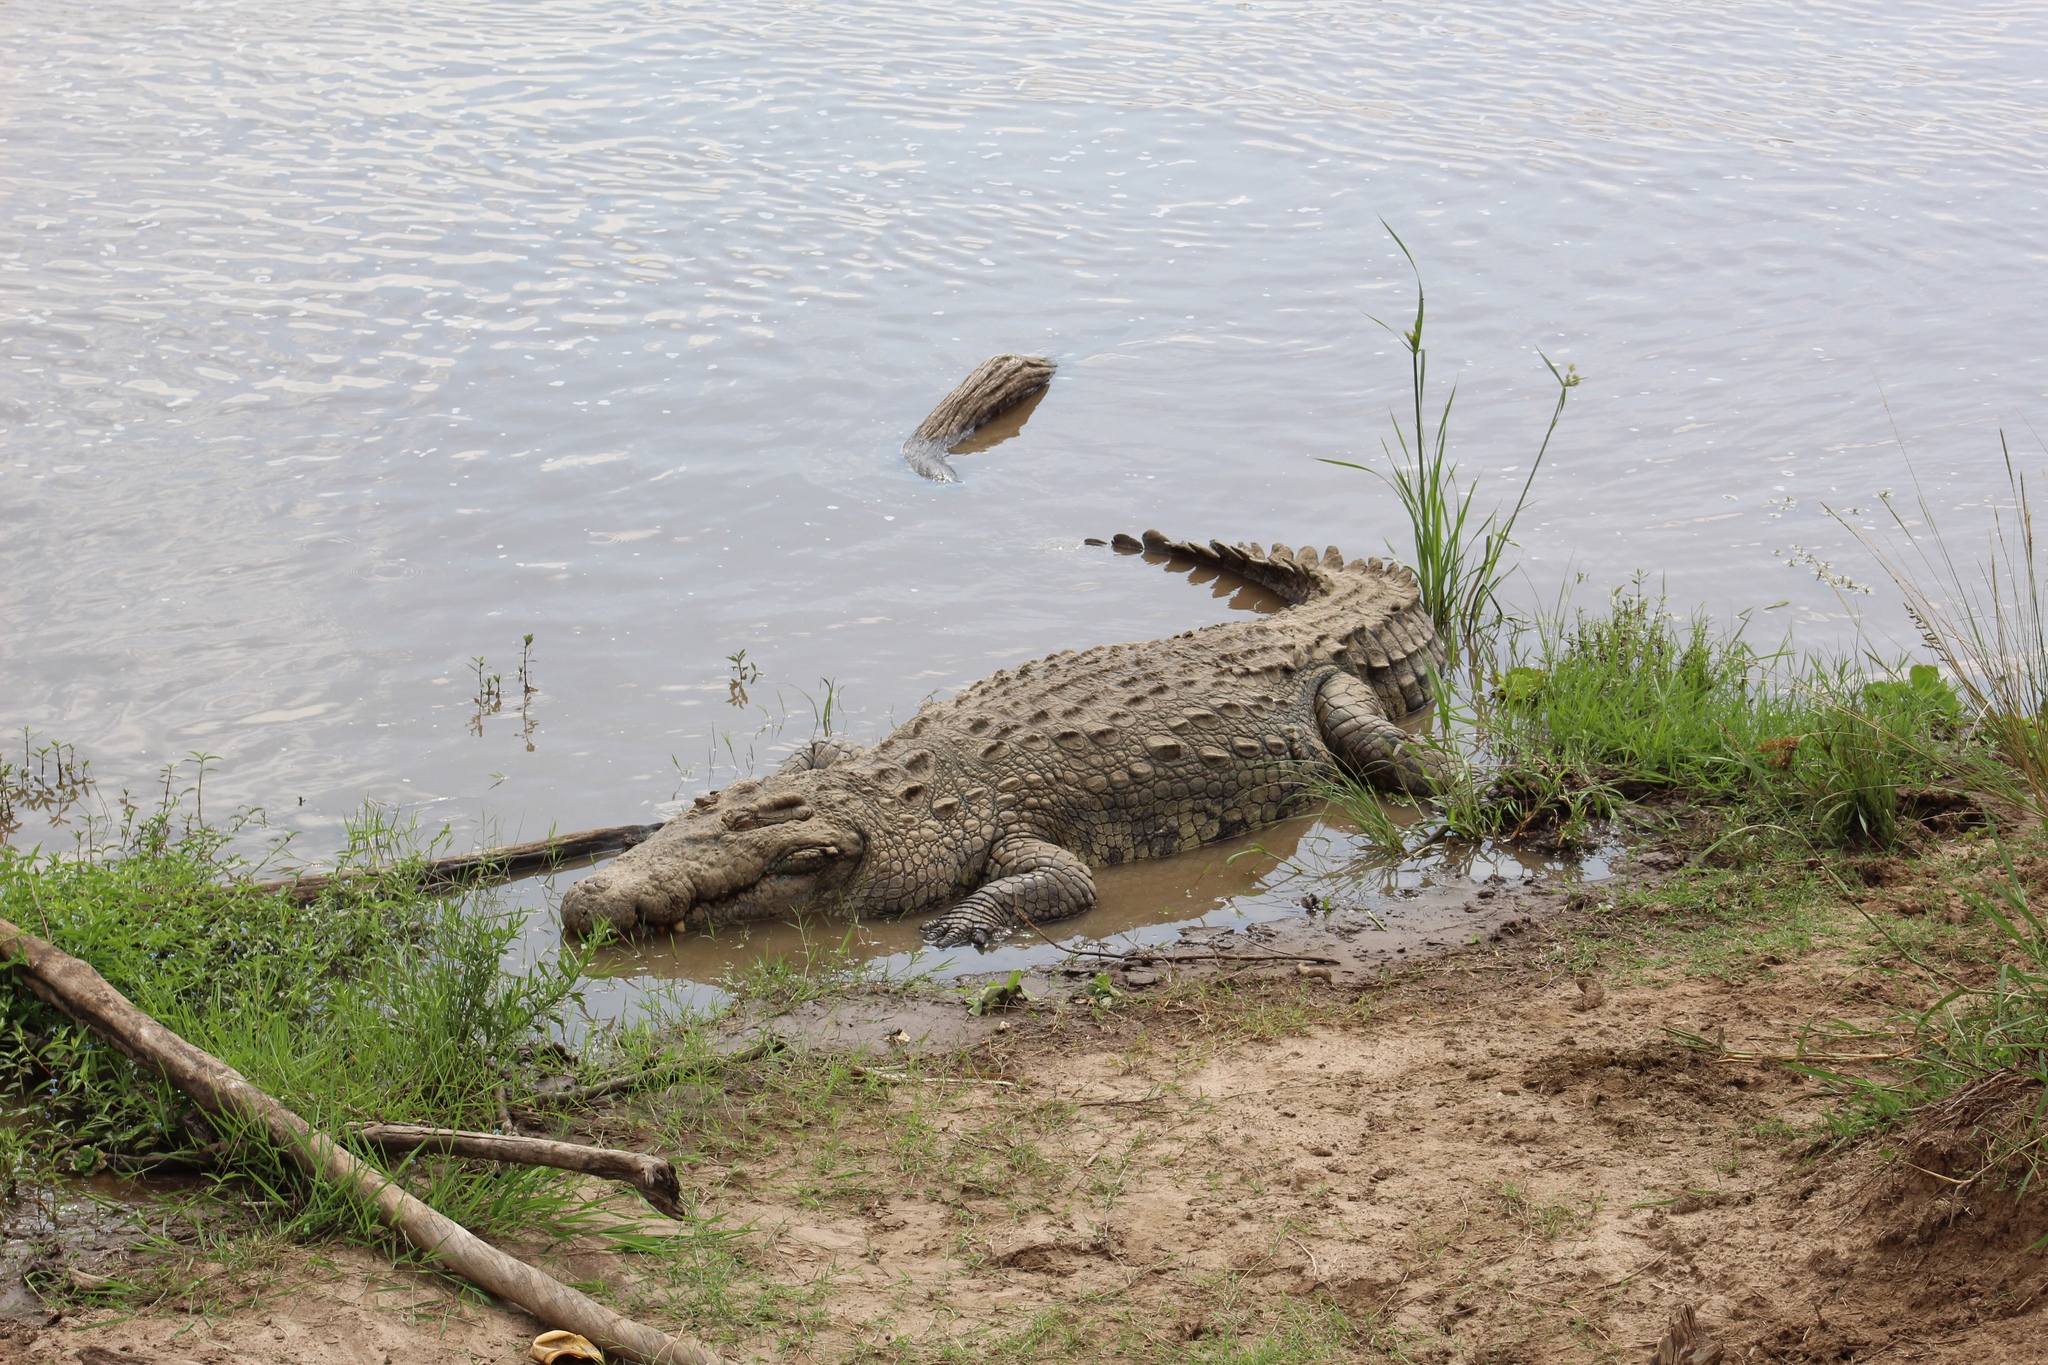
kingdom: Animalia
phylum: Chordata
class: Crocodylia
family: Crocodylidae
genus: Crocodylus
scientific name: Crocodylus niloticus
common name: Nile crocodile
